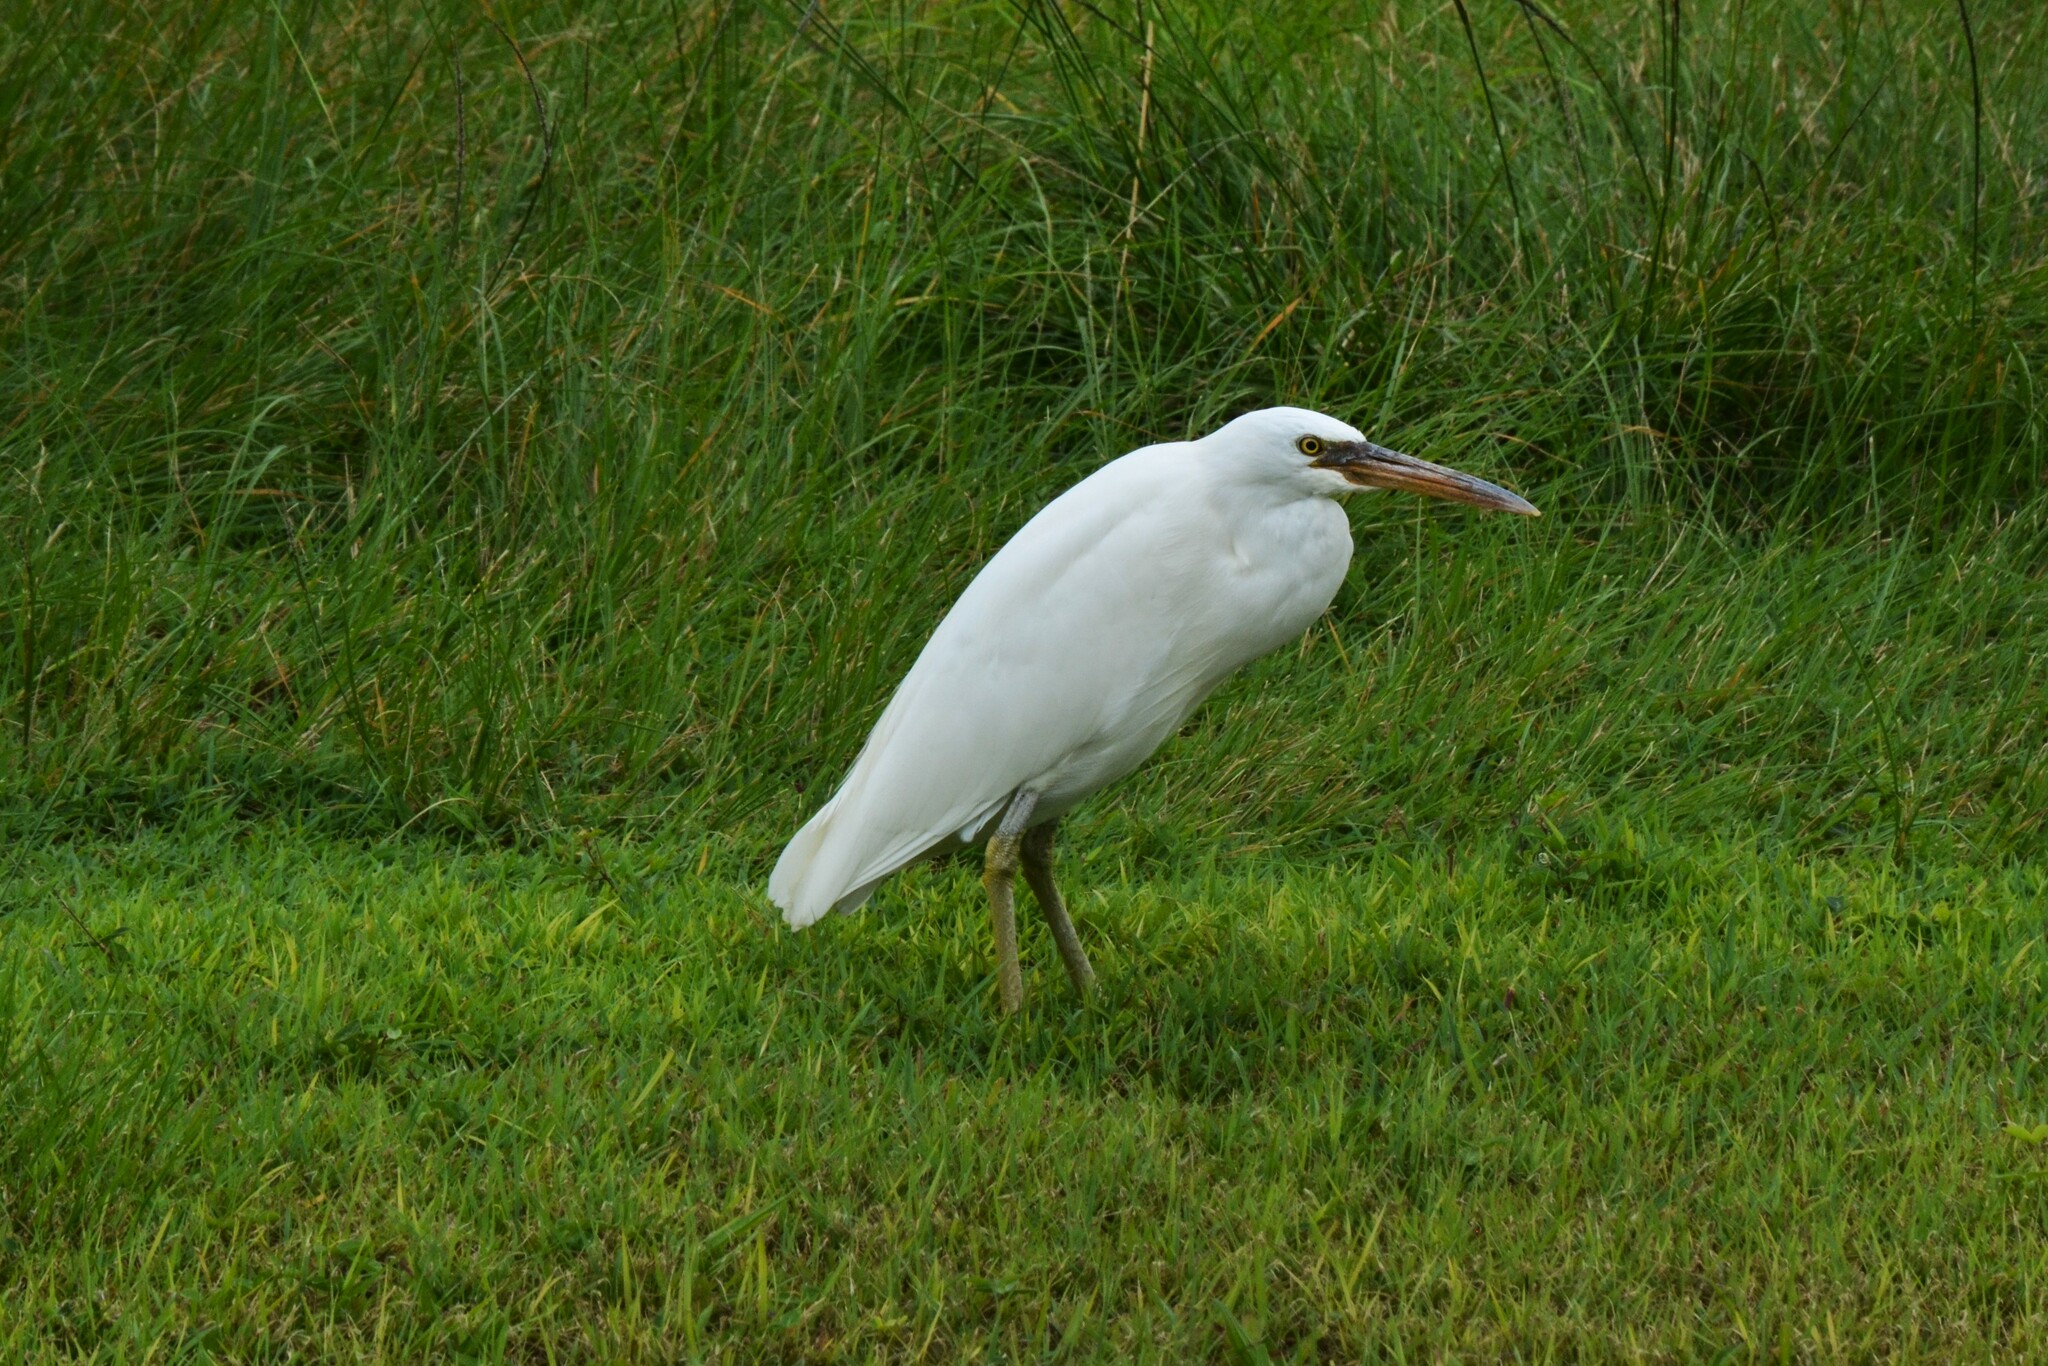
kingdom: Animalia
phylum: Chordata
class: Aves
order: Pelecaniformes
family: Ardeidae
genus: Egretta
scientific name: Egretta sacra
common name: Pacific reef heron
